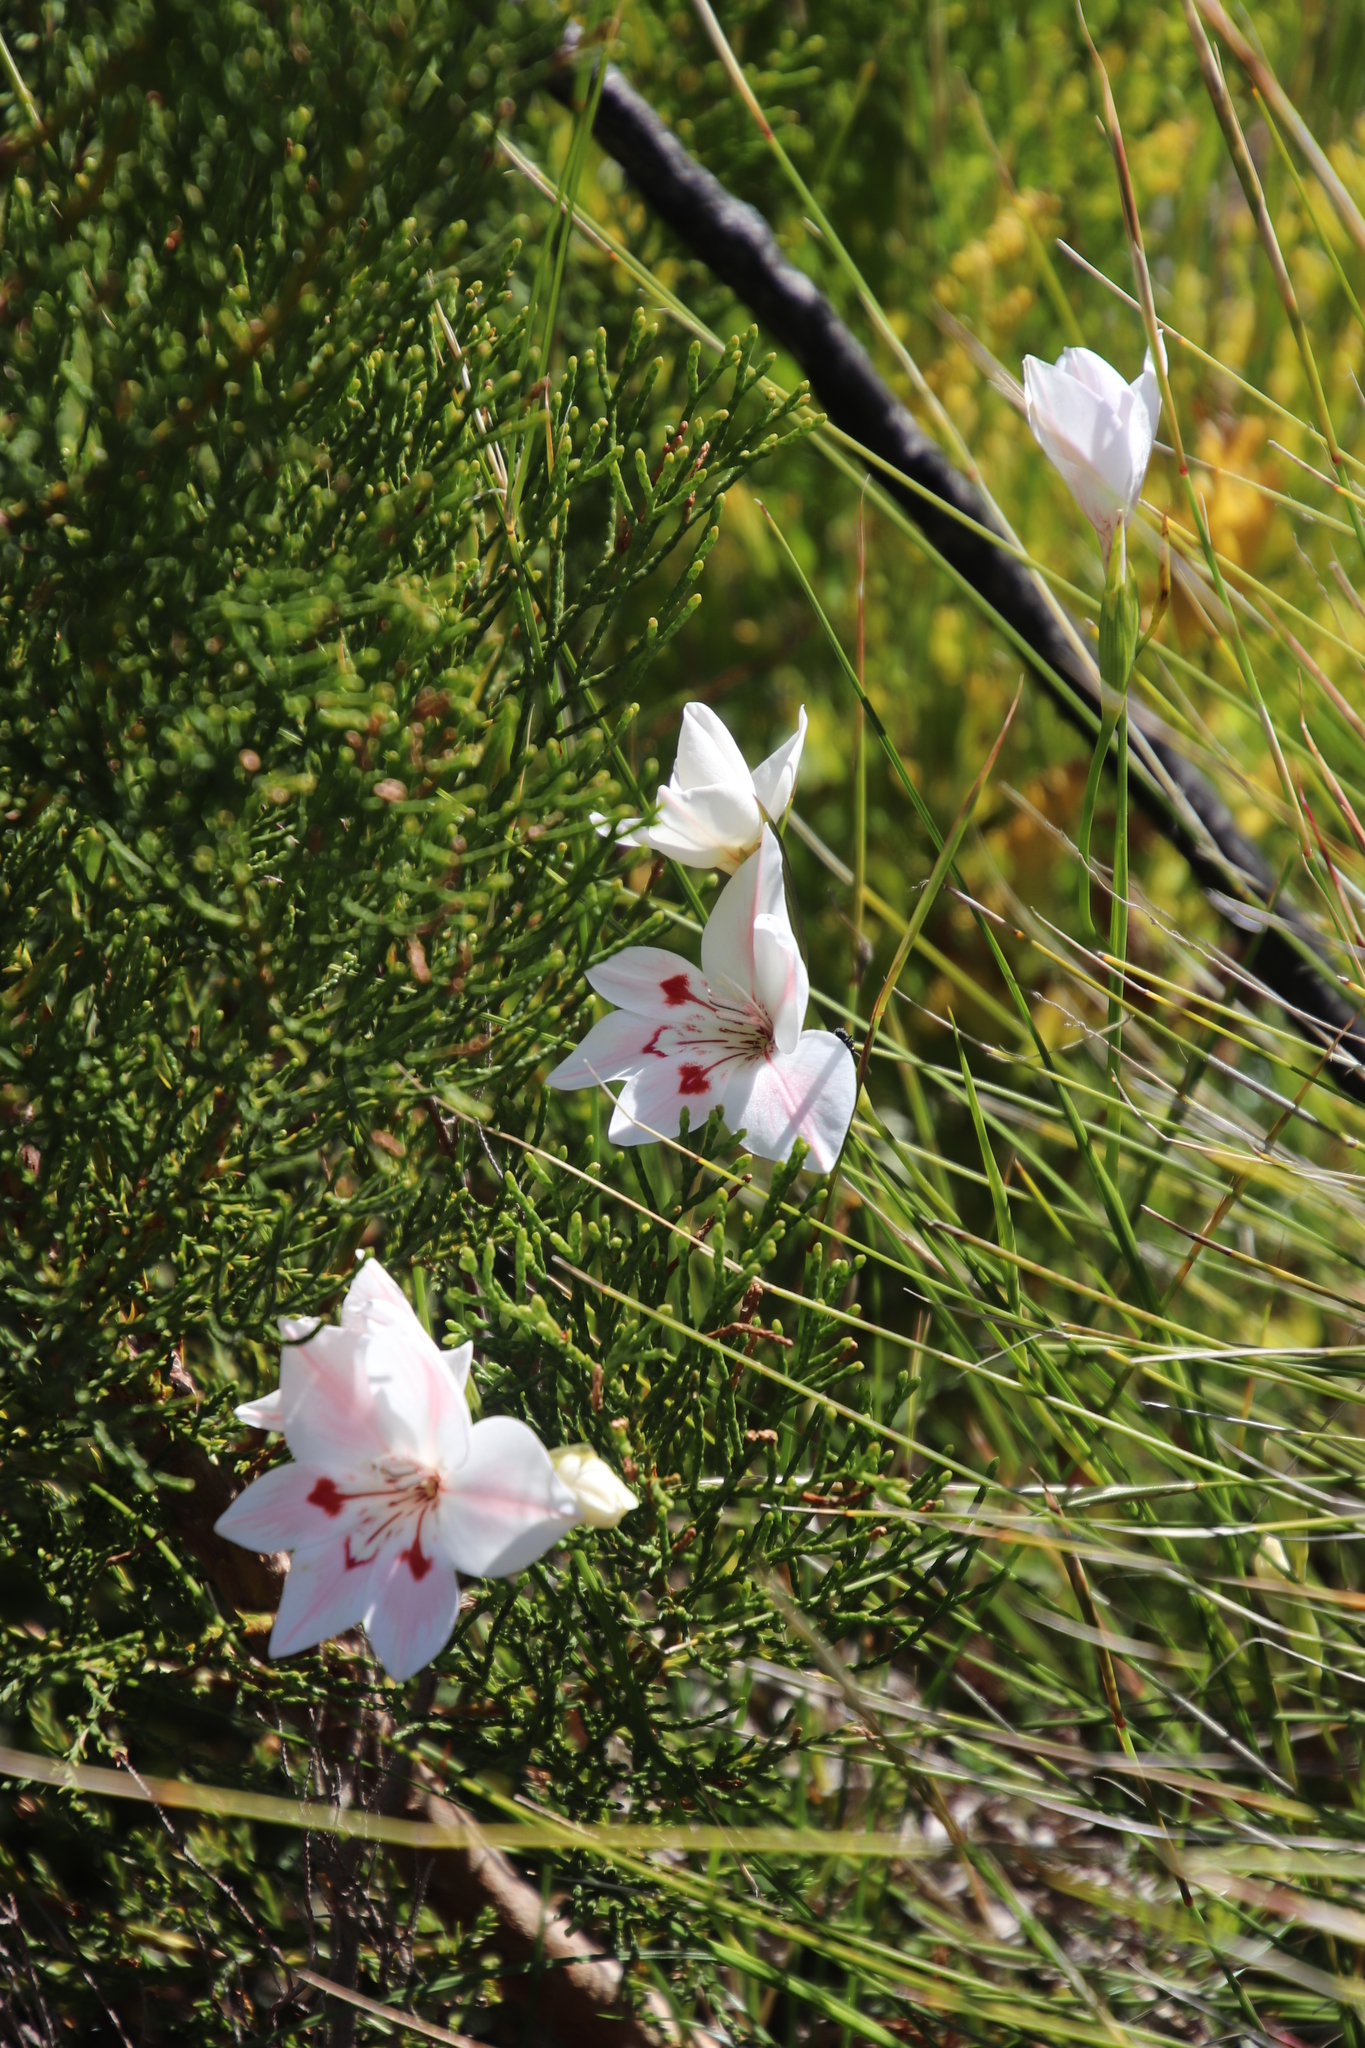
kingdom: Plantae
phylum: Tracheophyta
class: Liliopsida
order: Asparagales
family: Iridaceae
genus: Gladiolus
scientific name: Gladiolus debilis
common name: Painted-lady
